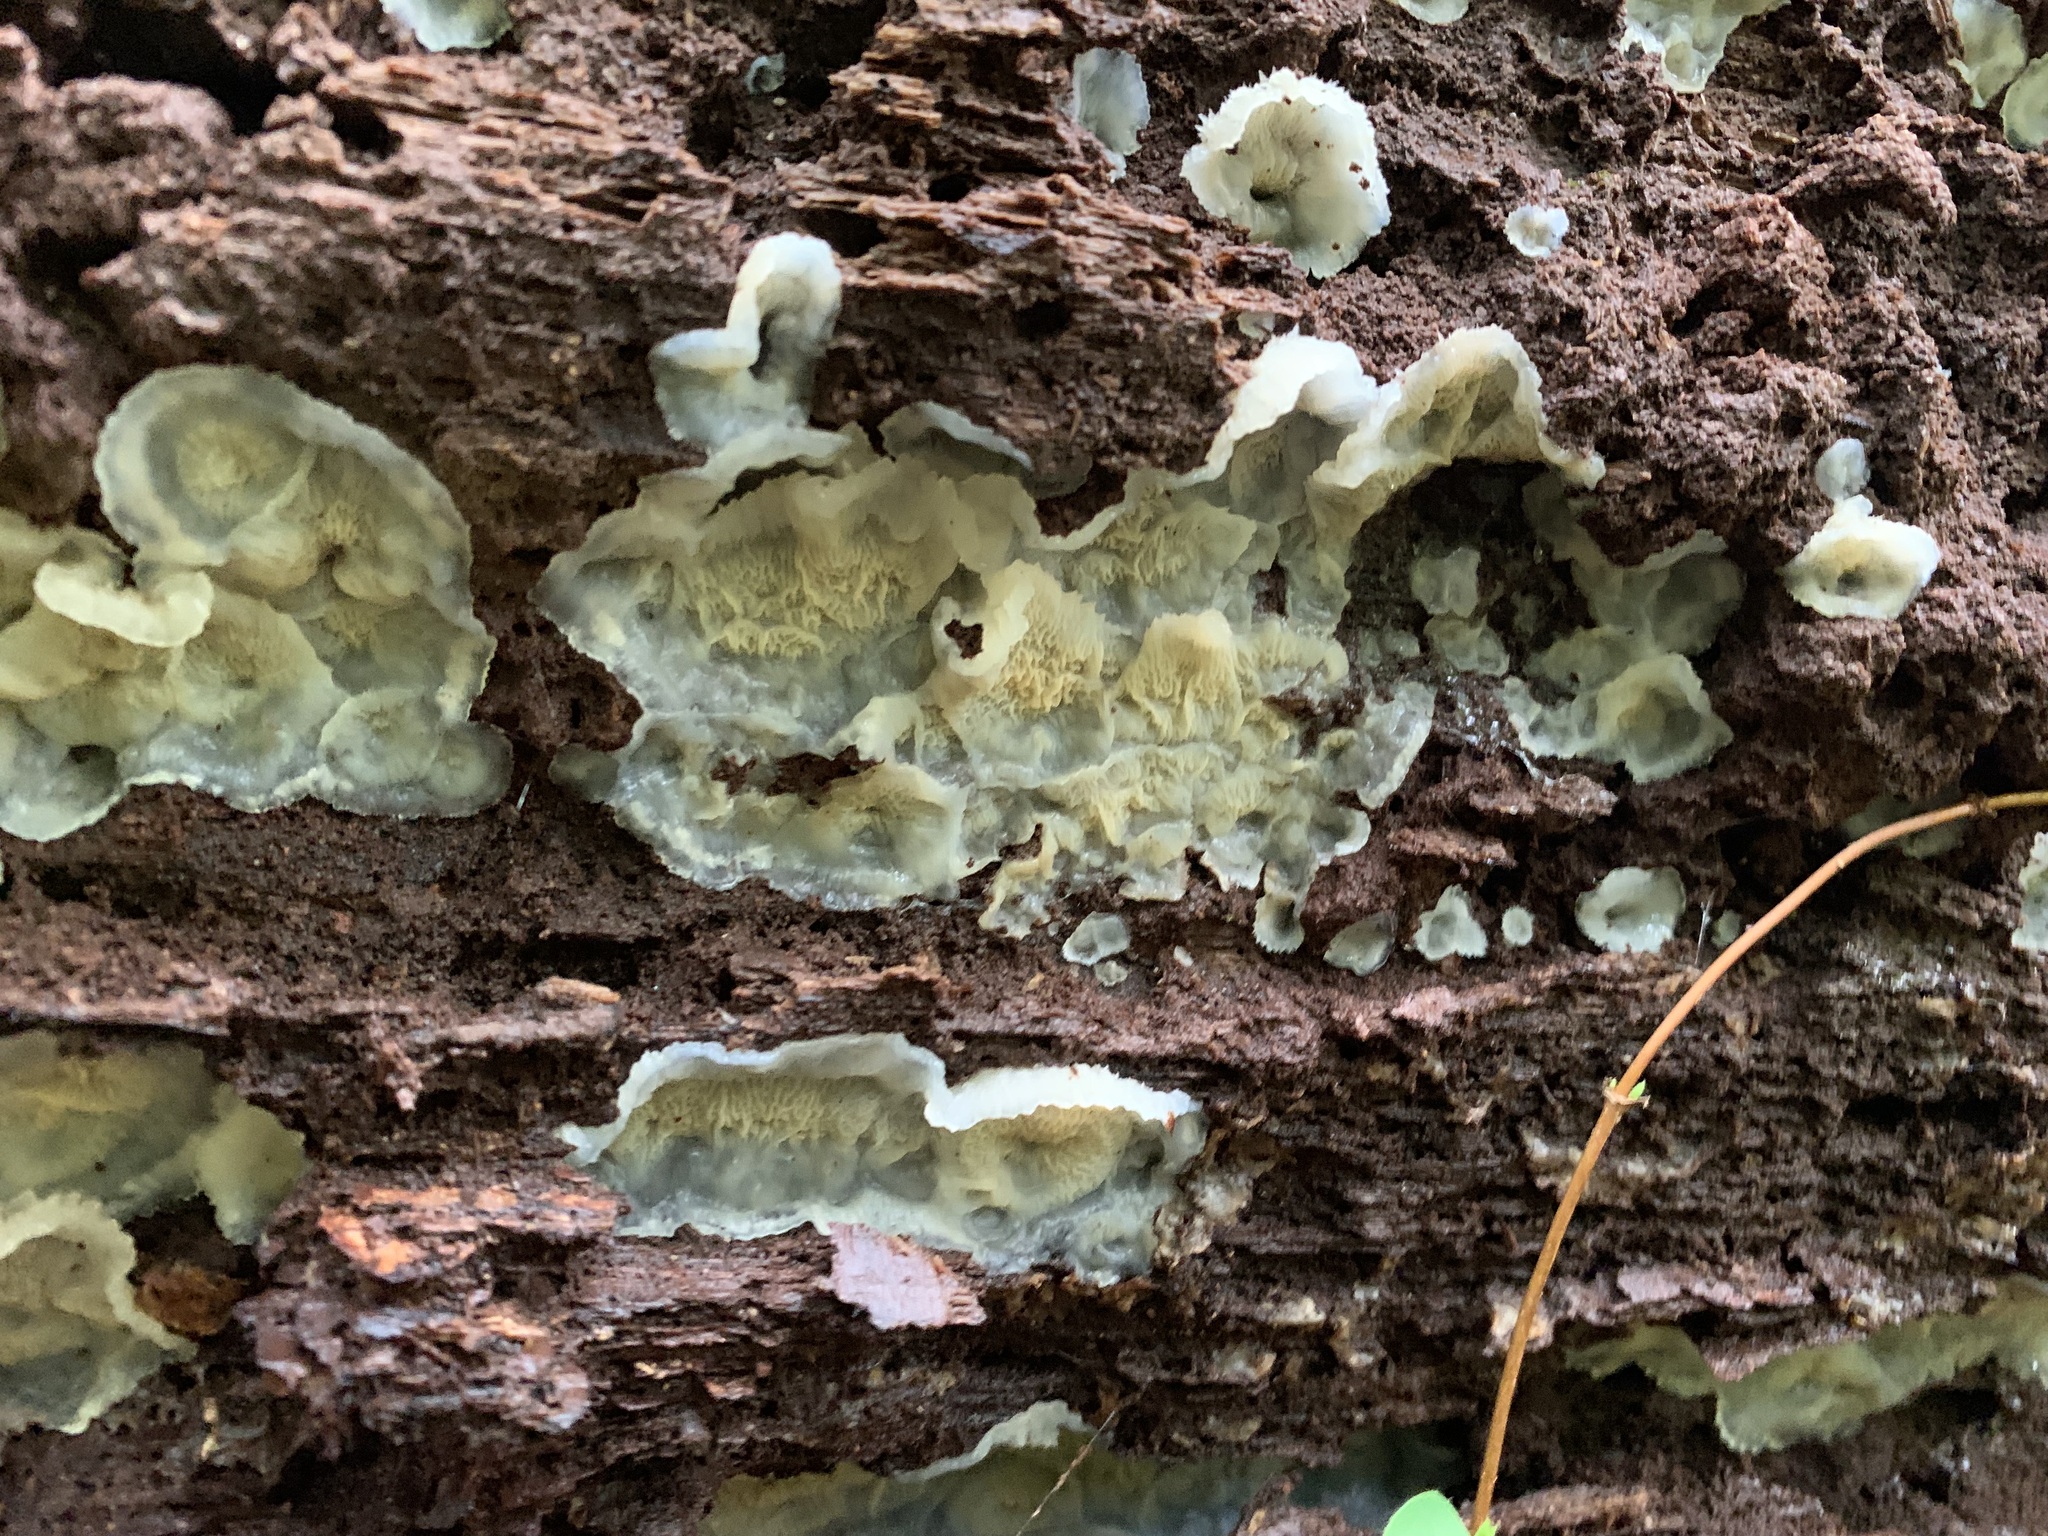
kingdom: Fungi
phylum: Basidiomycota
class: Agaricomycetes
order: Polyporales
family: Meruliaceae
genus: Phlebia
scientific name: Phlebia tremellosa
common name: Jelly rot
